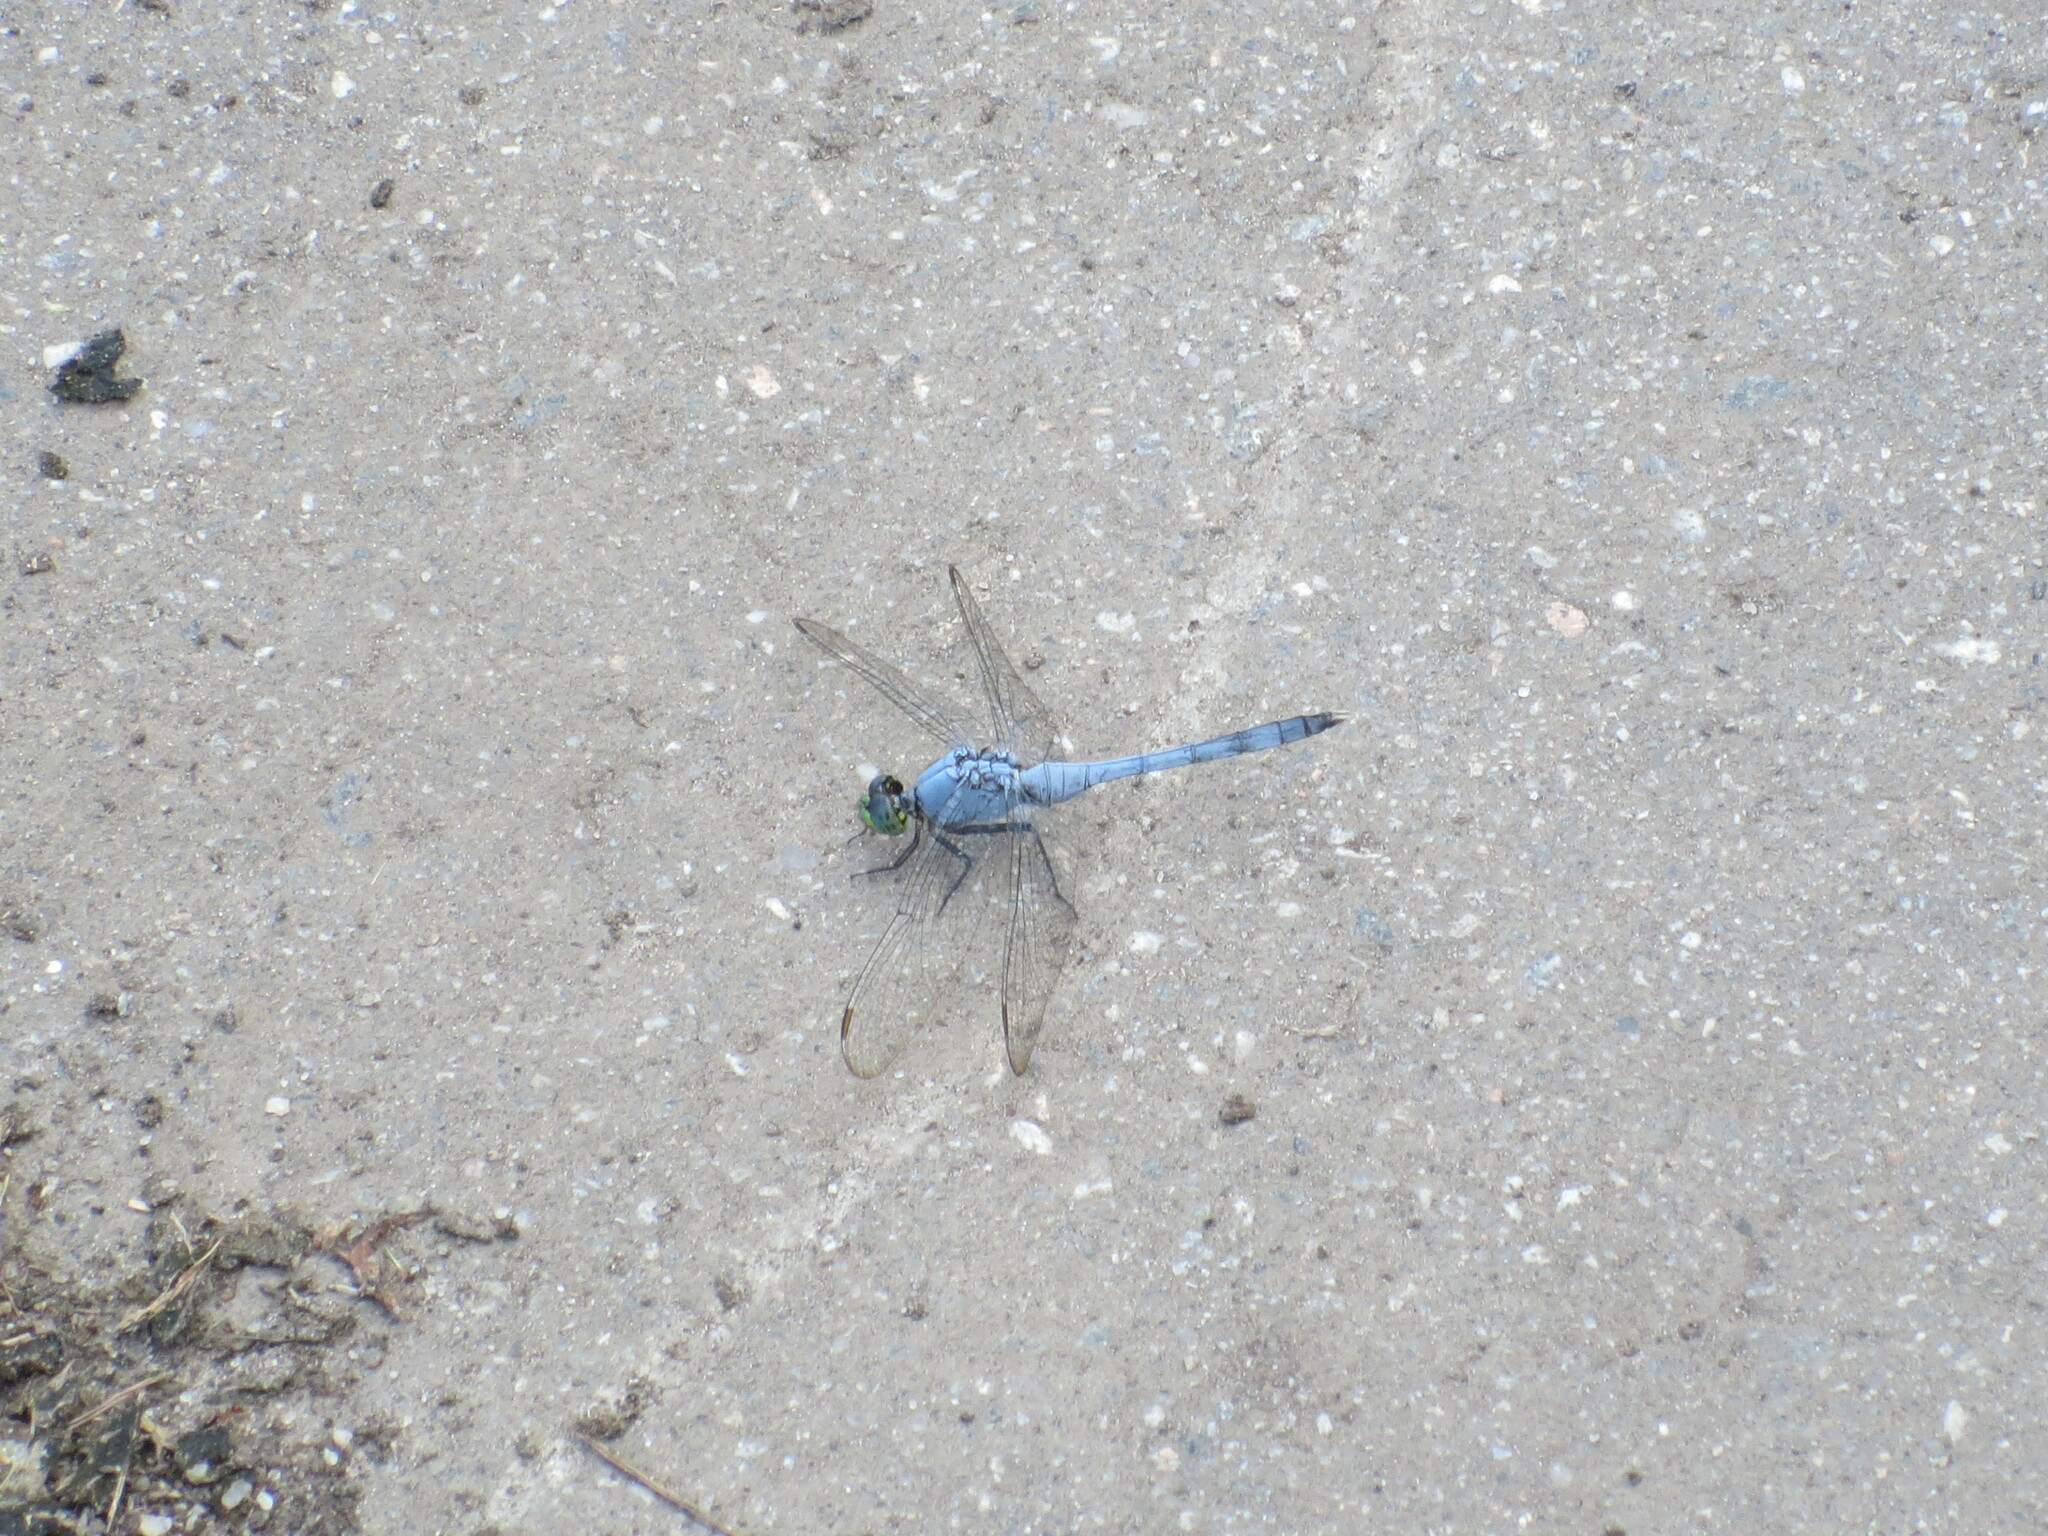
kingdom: Animalia
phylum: Arthropoda
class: Insecta
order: Odonata
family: Libellulidae
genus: Erythemis
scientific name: Erythemis simplicicollis
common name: Eastern pondhawk
